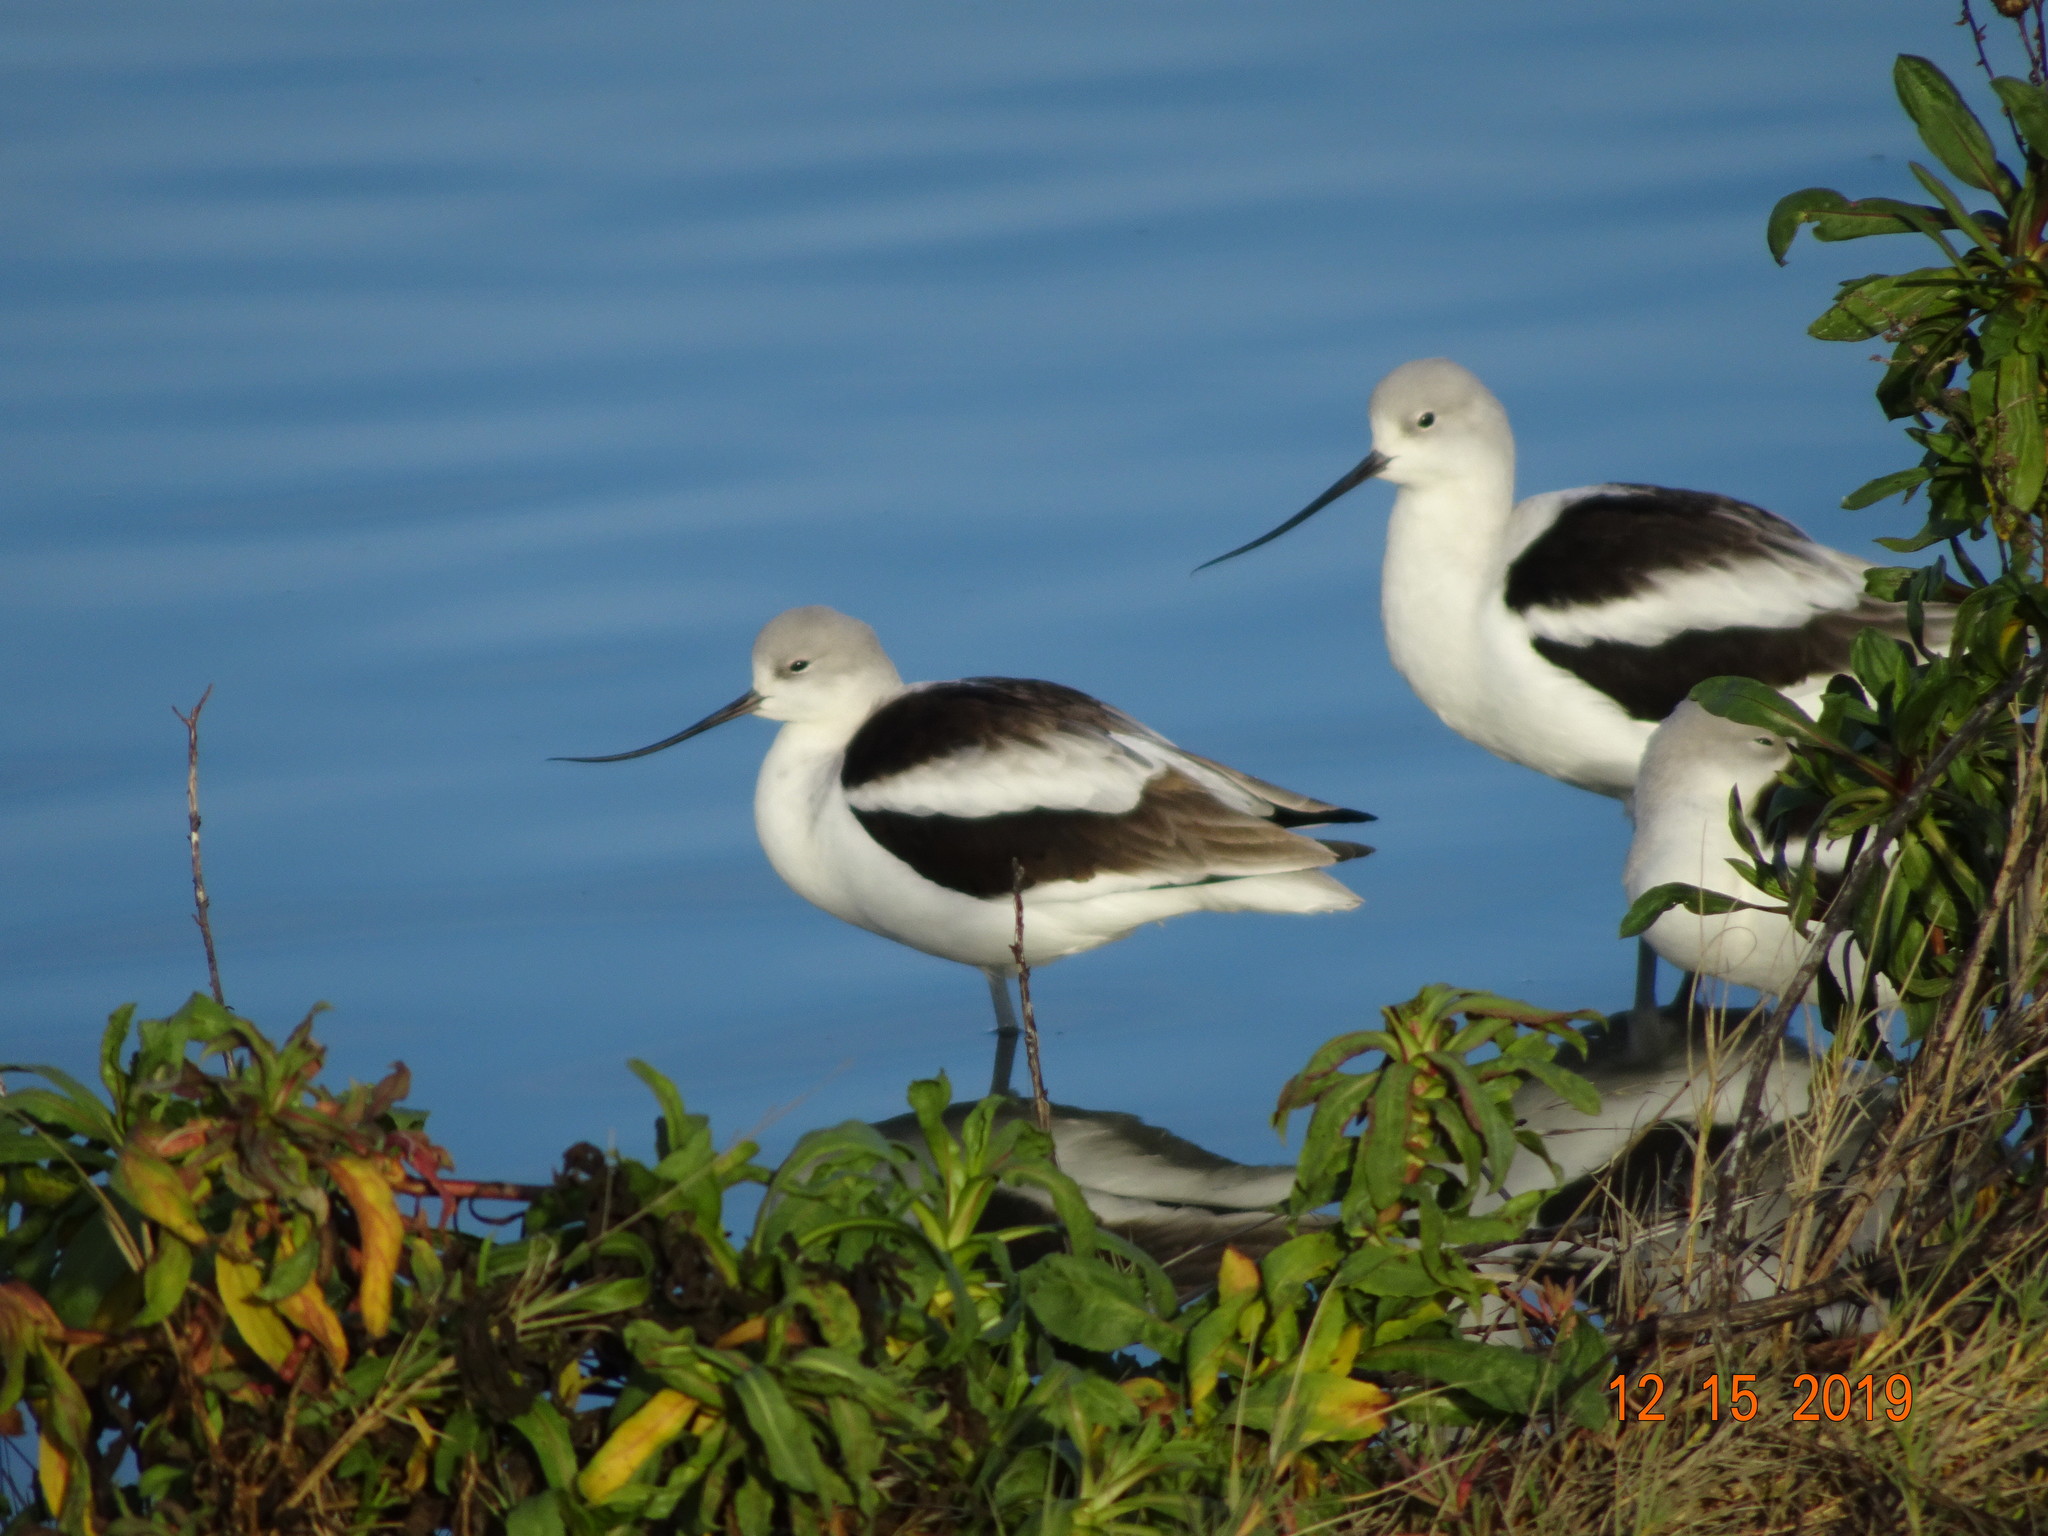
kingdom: Animalia
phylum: Chordata
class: Aves
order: Charadriiformes
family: Recurvirostridae
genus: Recurvirostra
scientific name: Recurvirostra americana
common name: American avocet
